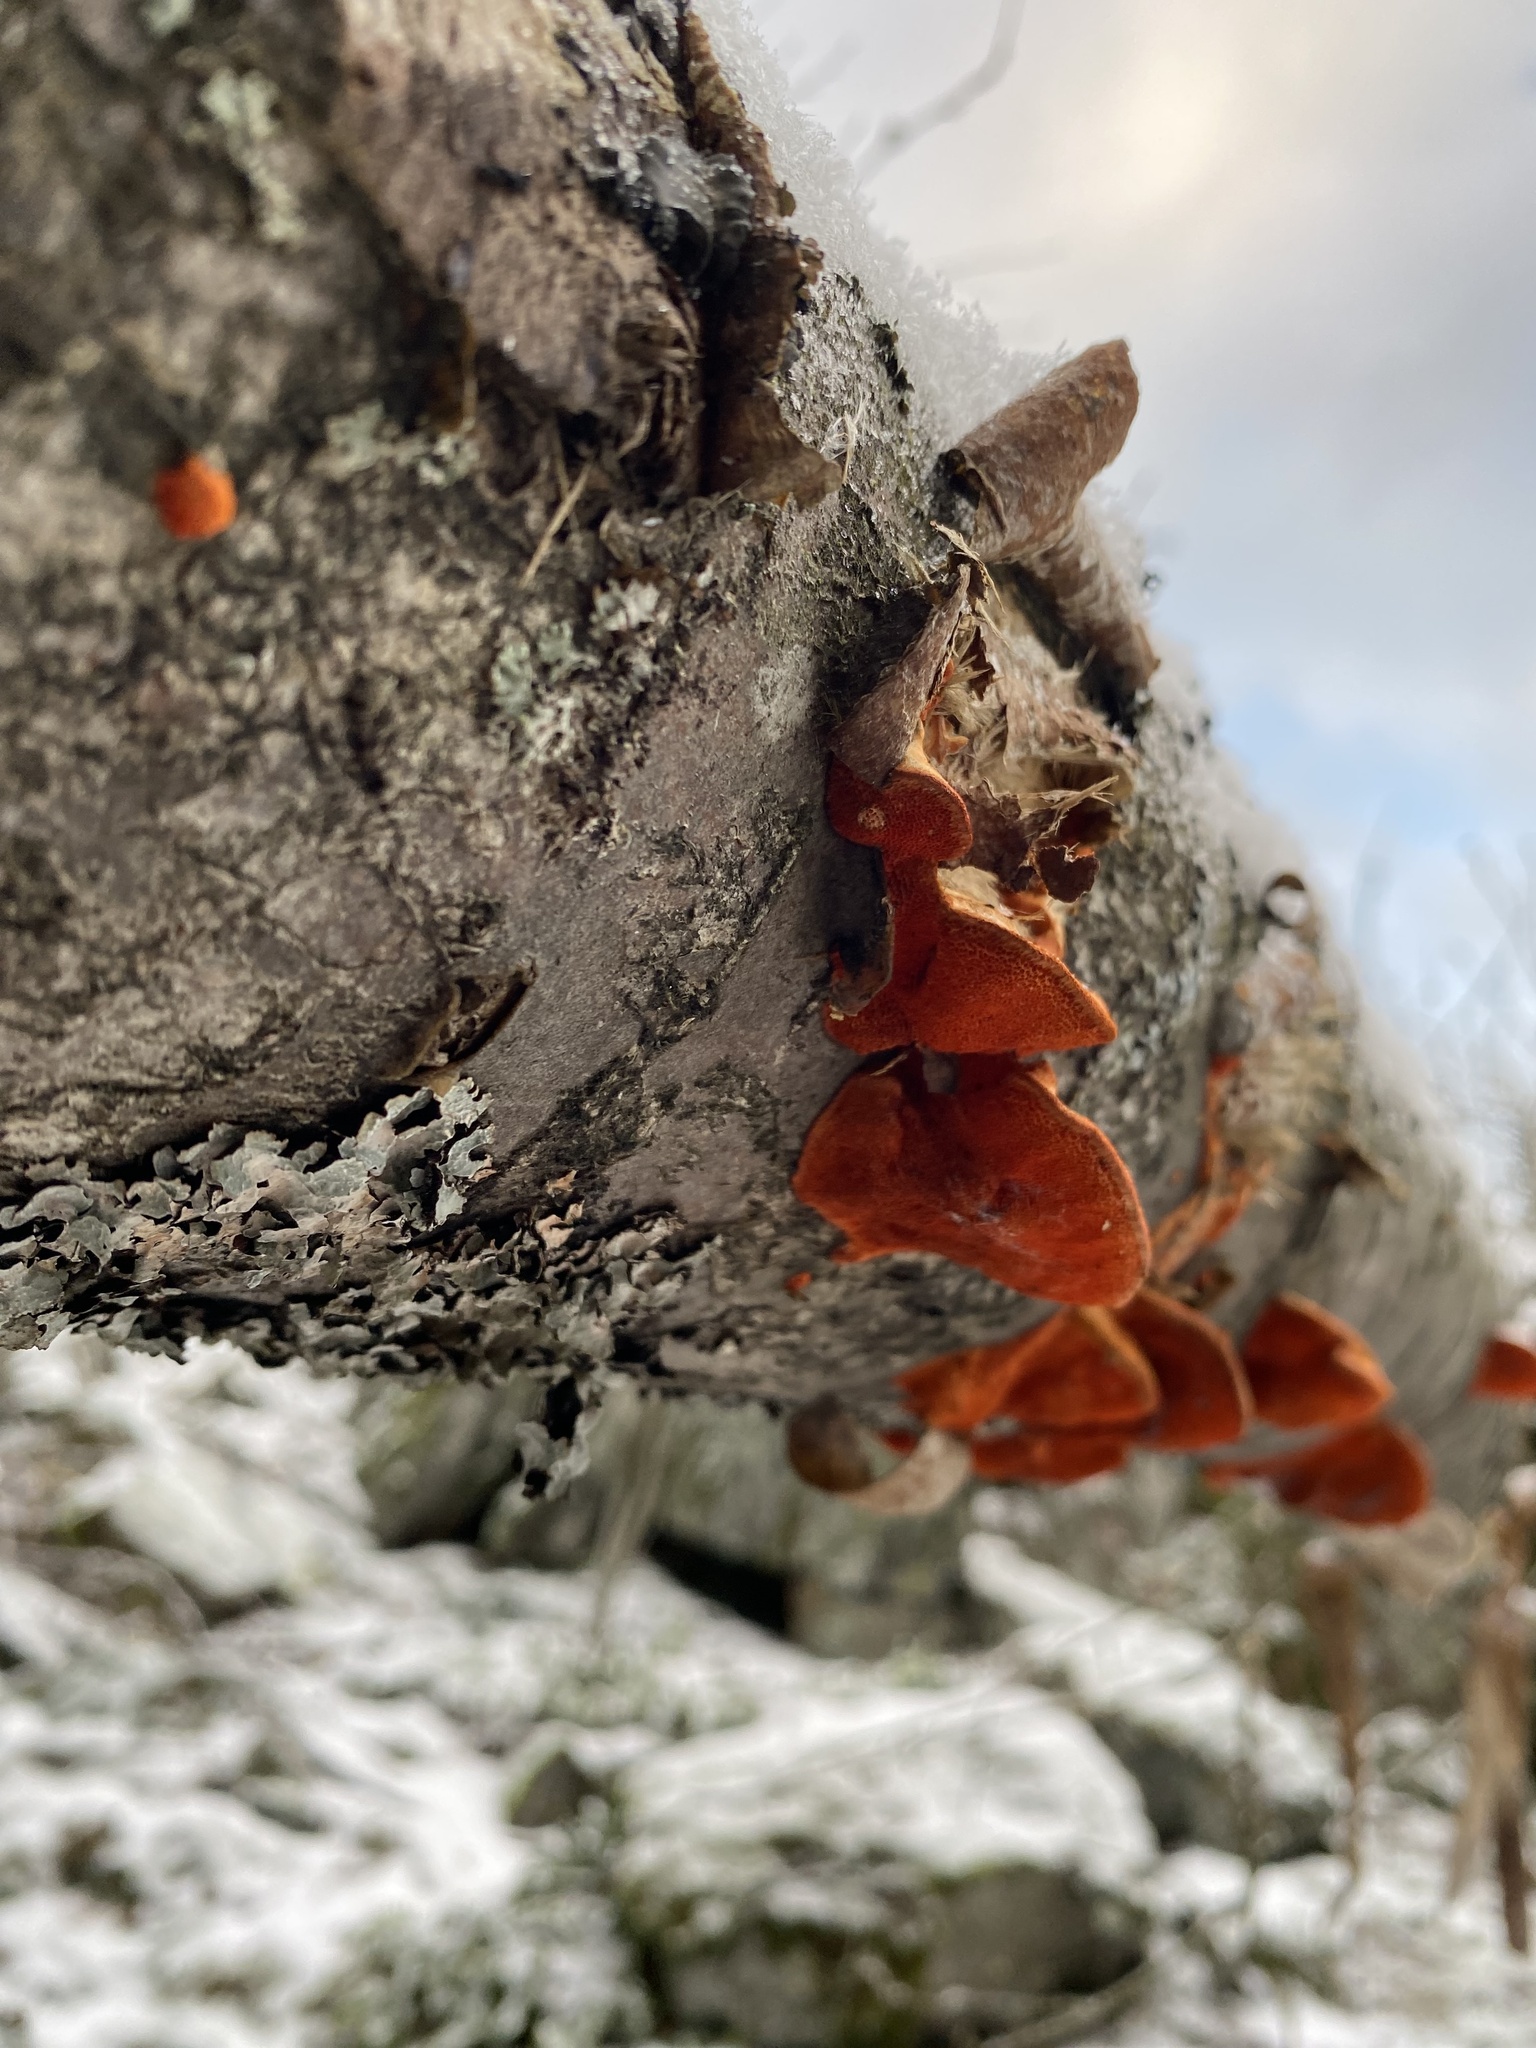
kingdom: Fungi
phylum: Basidiomycota
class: Agaricomycetes
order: Polyporales
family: Polyporaceae
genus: Trametes
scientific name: Trametes cinnabarina
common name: Northern cinnabar polypore
